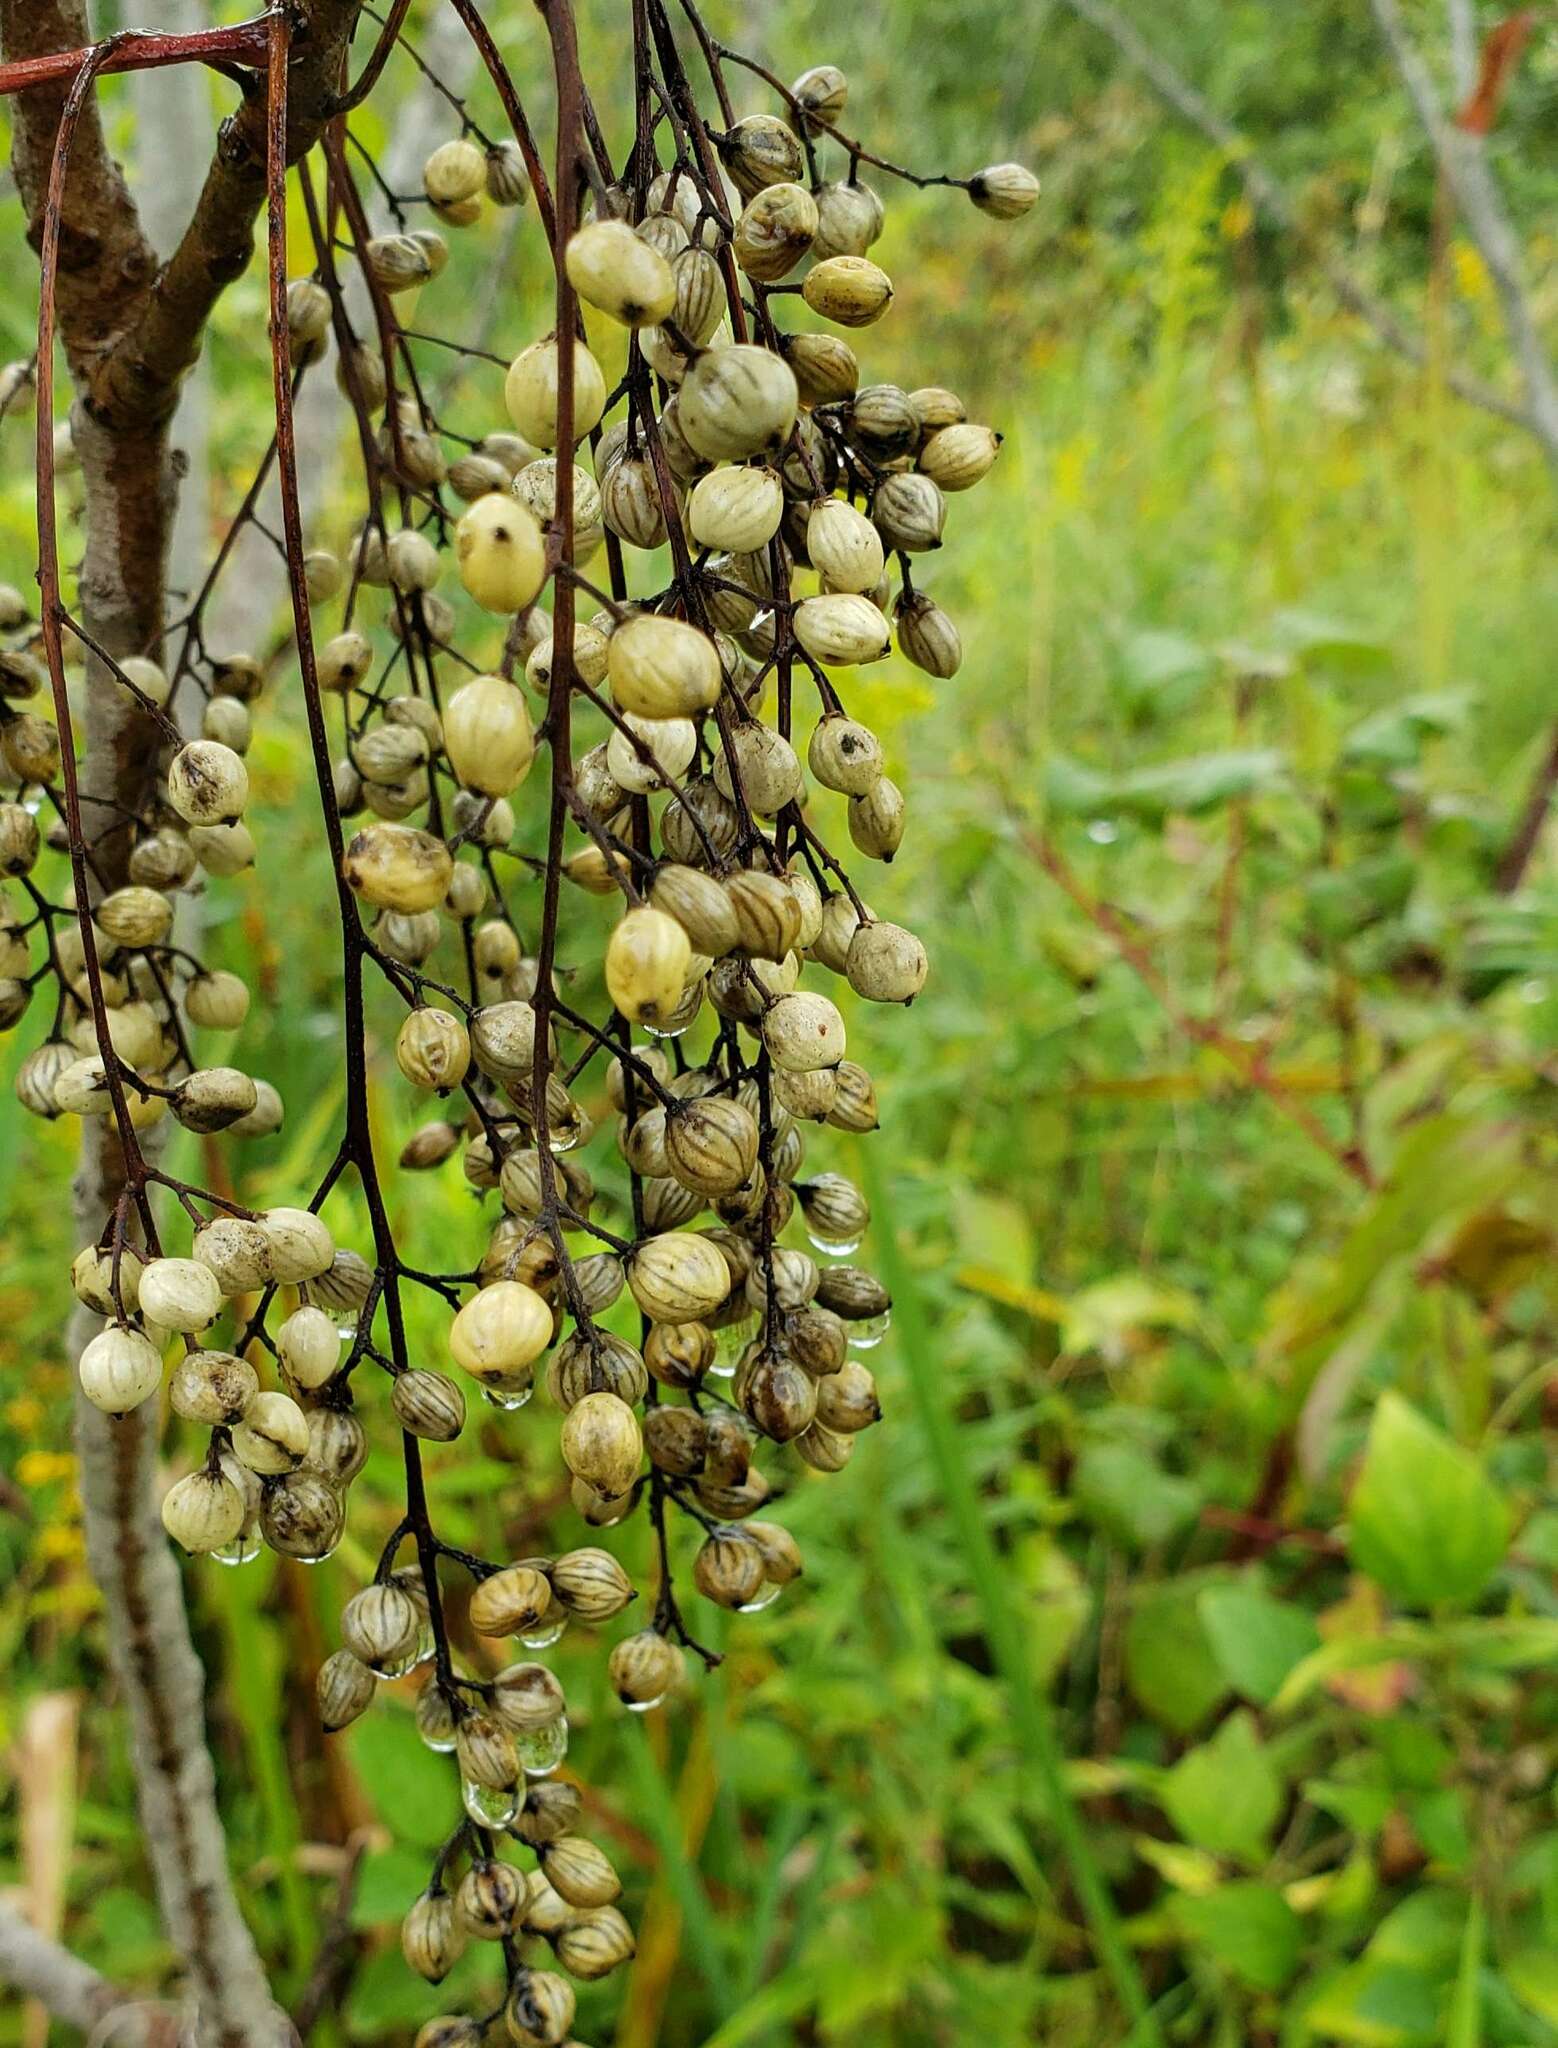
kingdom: Plantae
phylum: Tracheophyta
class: Magnoliopsida
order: Sapindales
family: Anacardiaceae
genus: Toxicodendron
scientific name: Toxicodendron vernix
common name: Poison sumac
